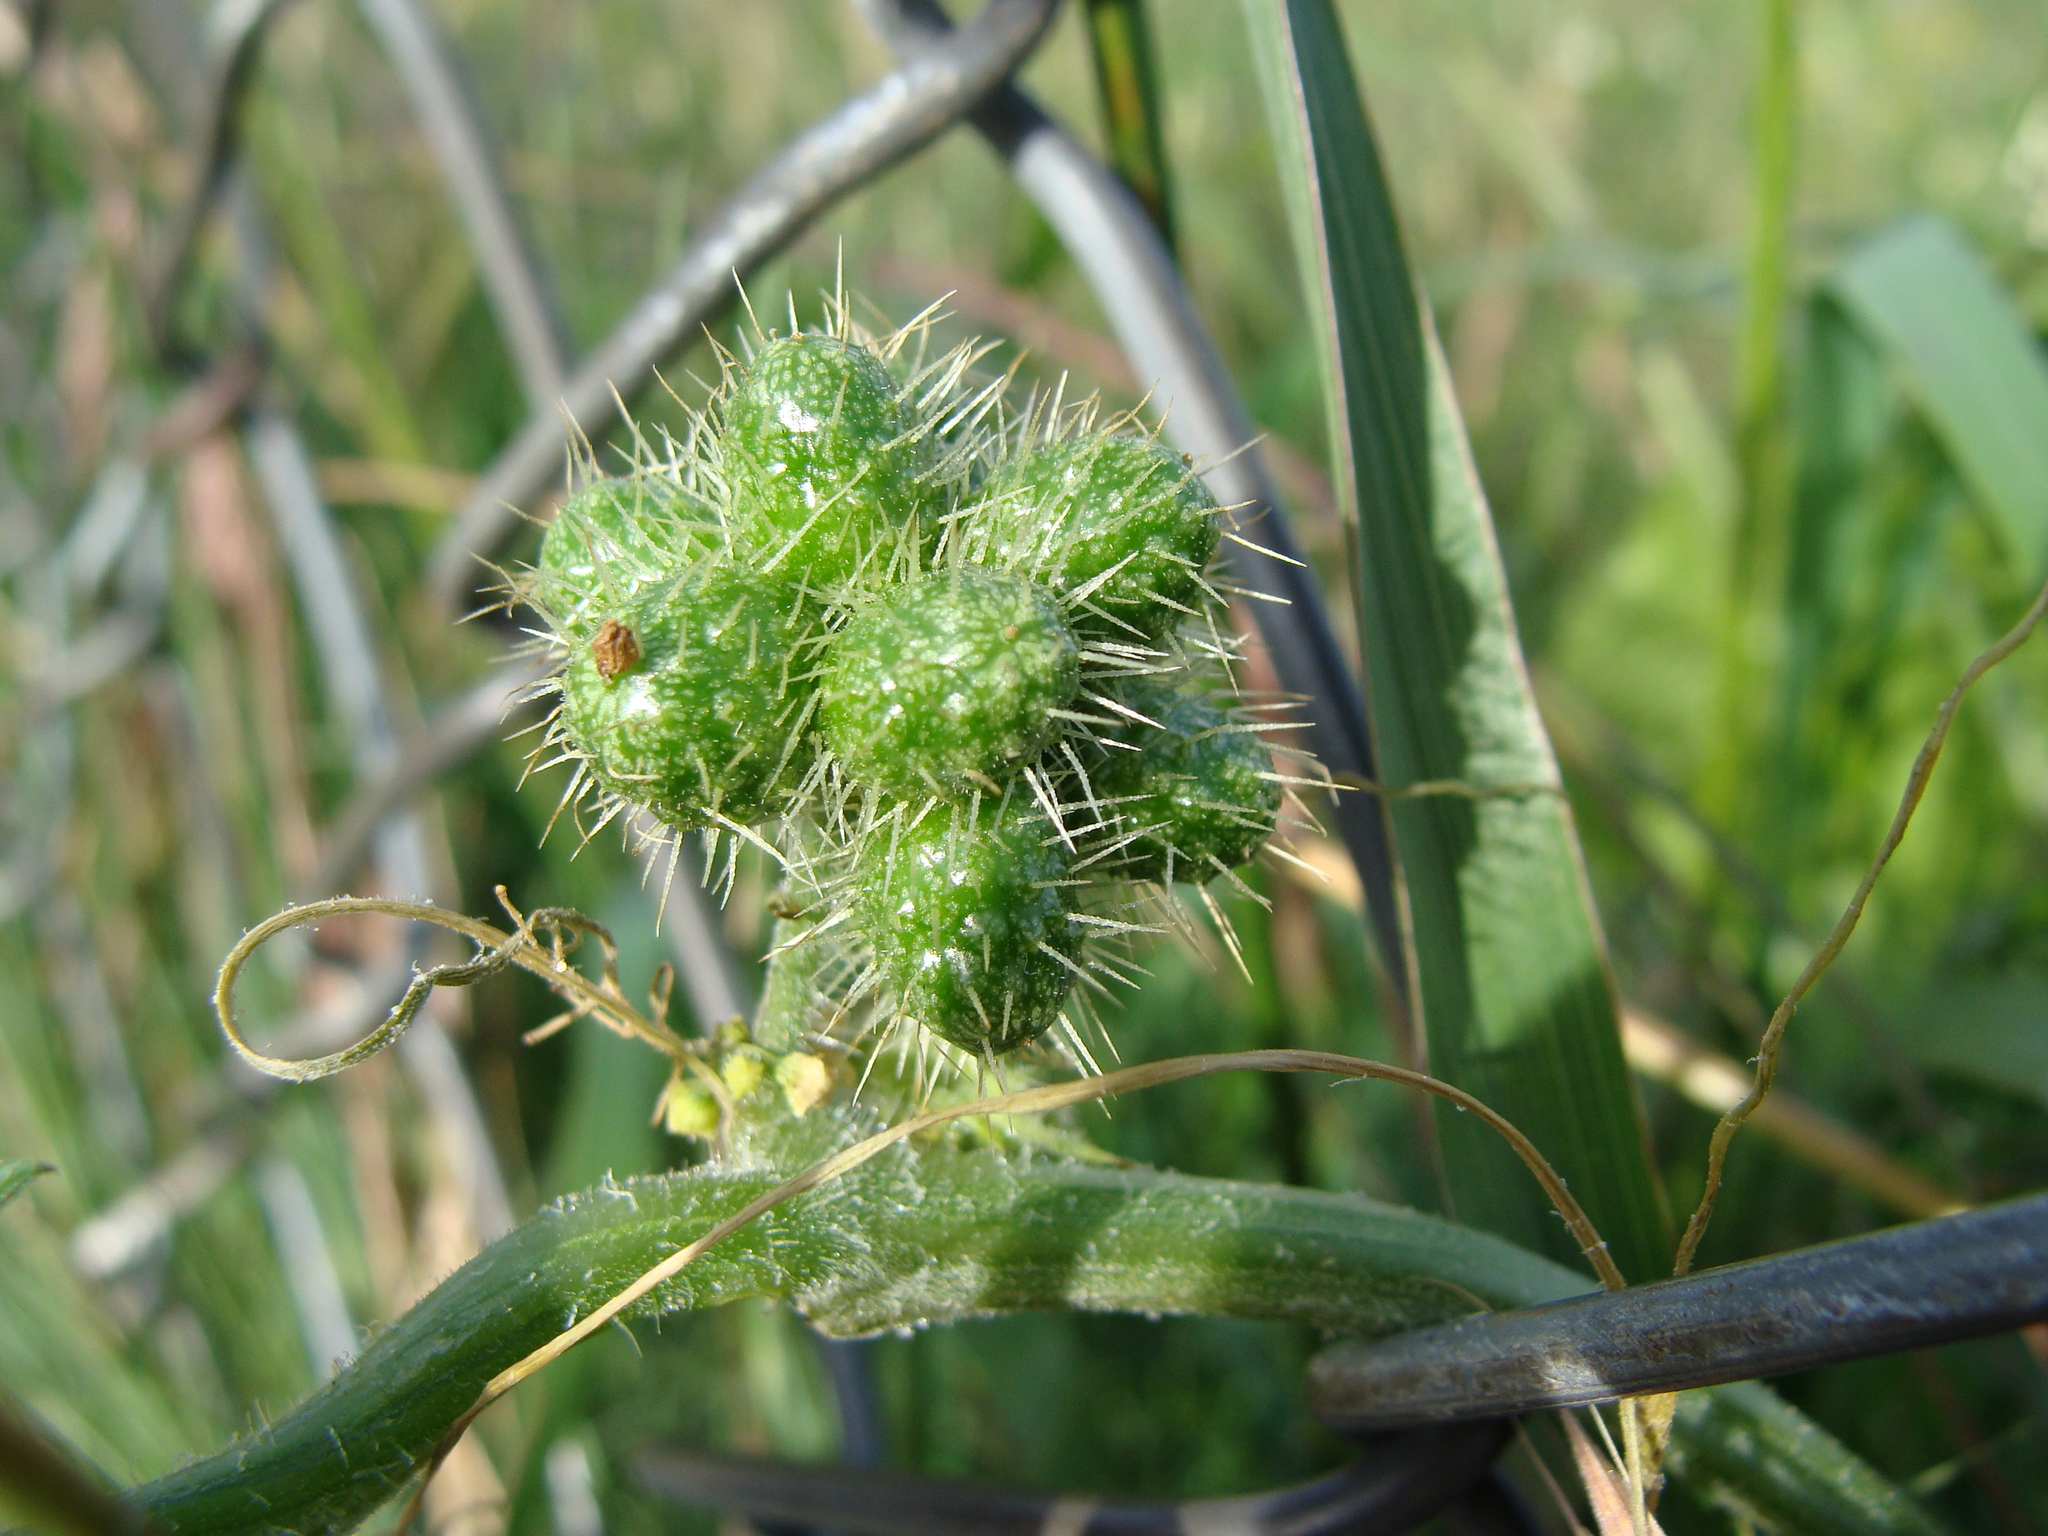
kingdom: Plantae
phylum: Tracheophyta
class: Magnoliopsida
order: Cucurbitales
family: Cucurbitaceae
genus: Sicyos
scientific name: Sicyos laciniatus
